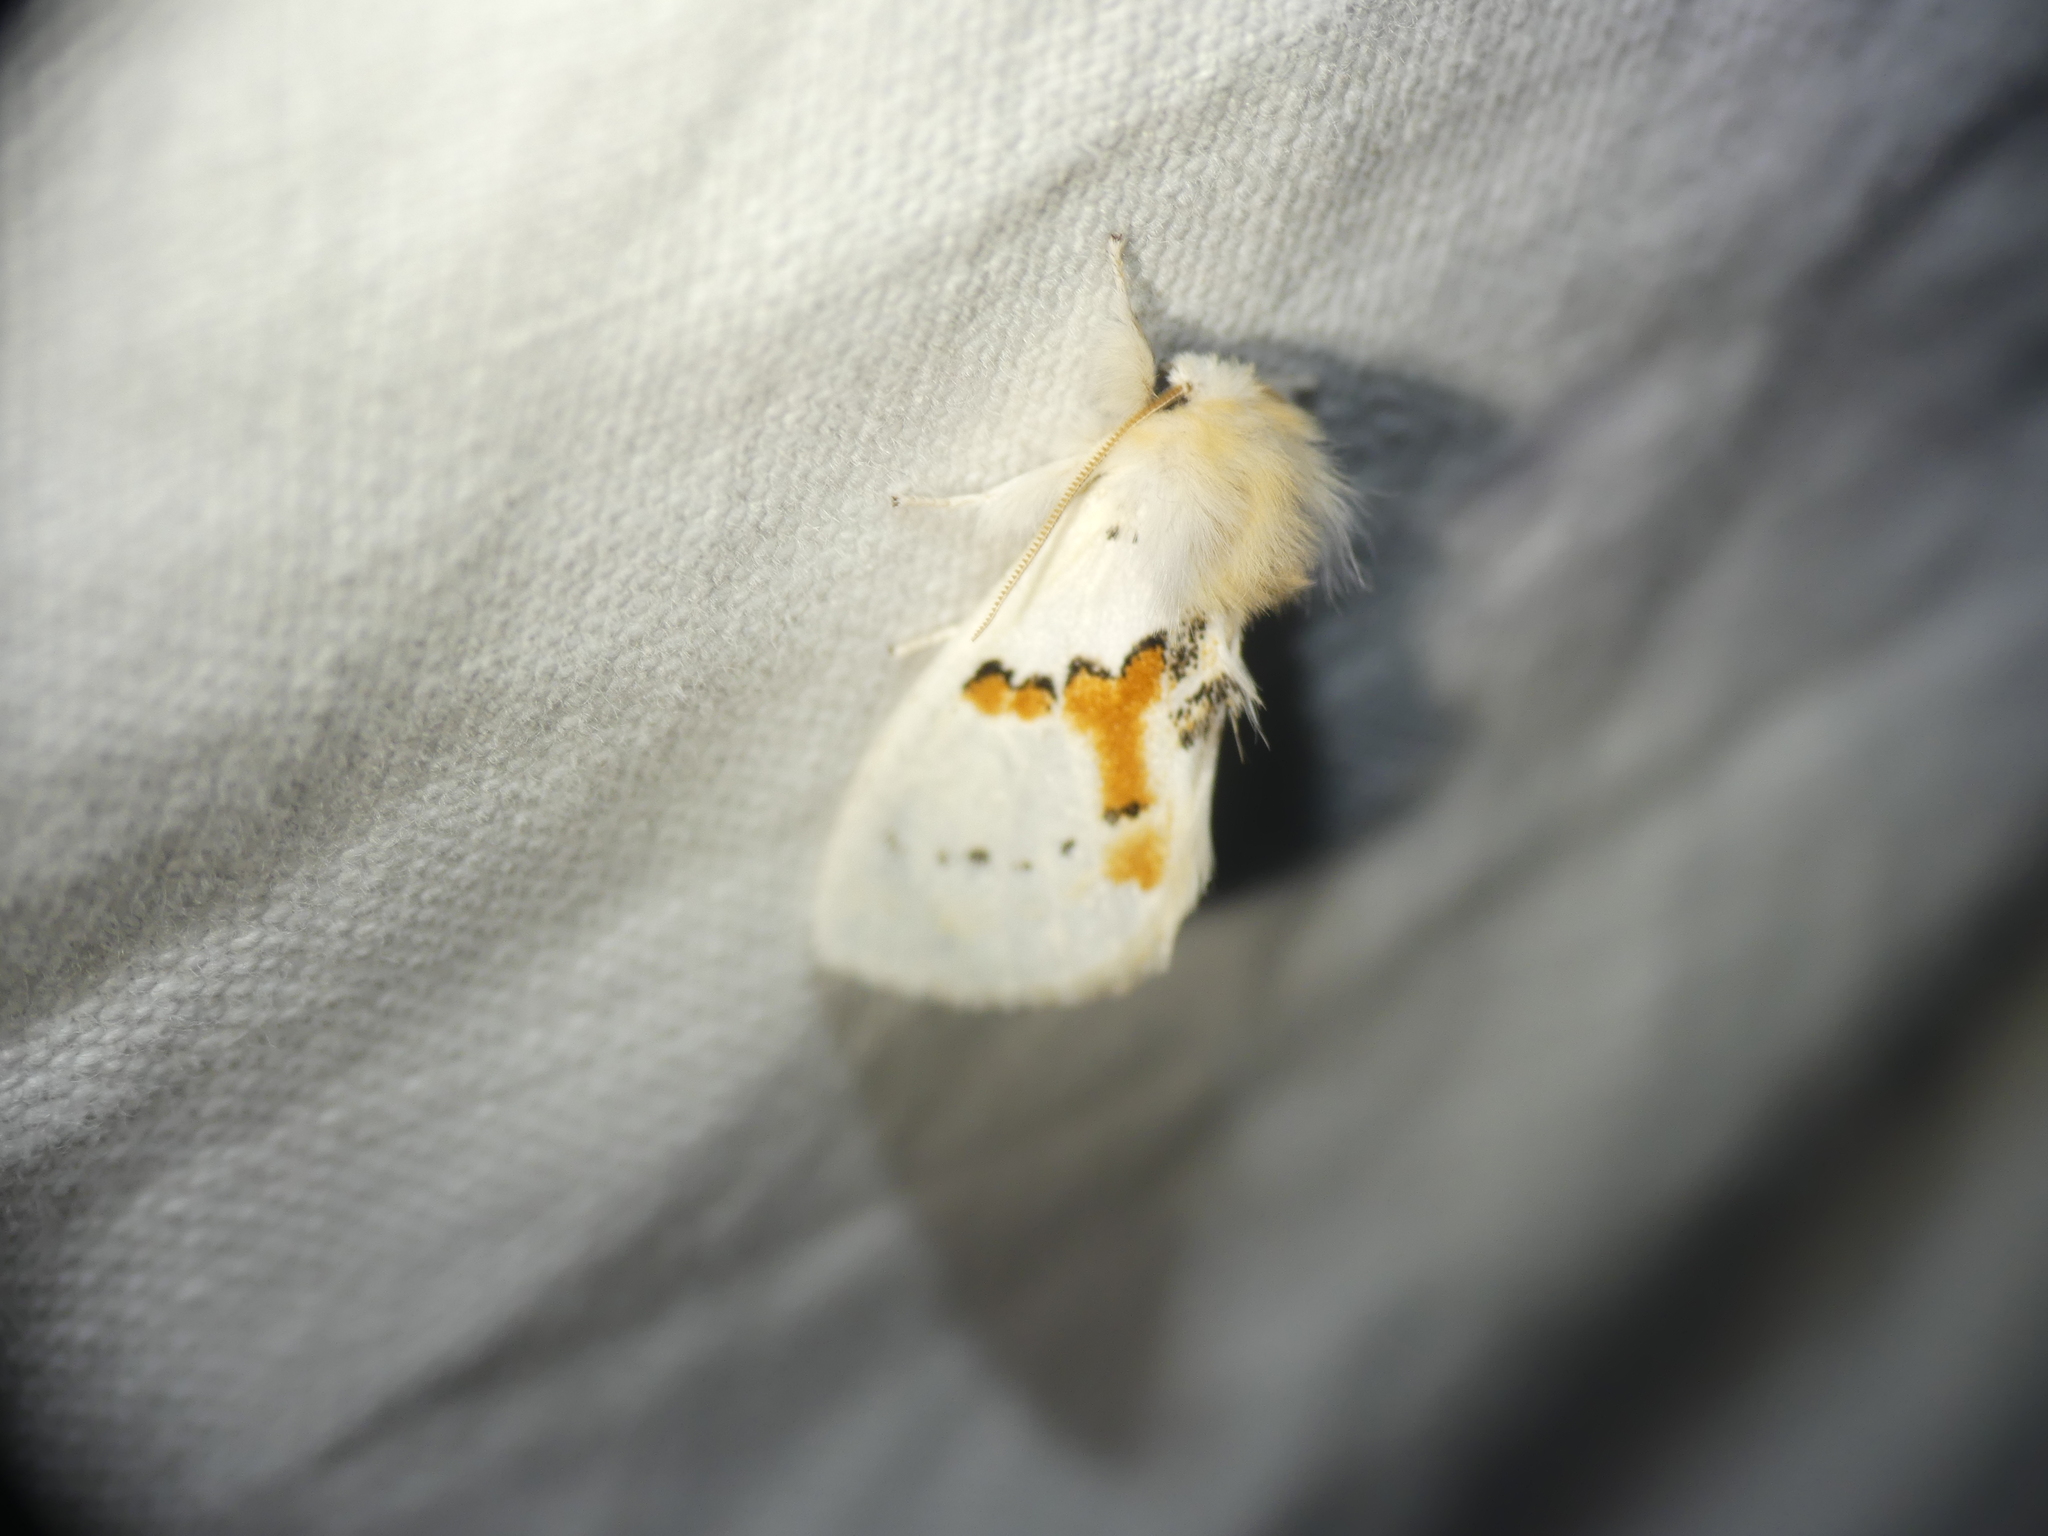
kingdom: Animalia
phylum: Arthropoda
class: Insecta
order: Lepidoptera
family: Notodontidae
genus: Leucodonta
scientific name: Leucodonta bicoloria
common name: White prominent
